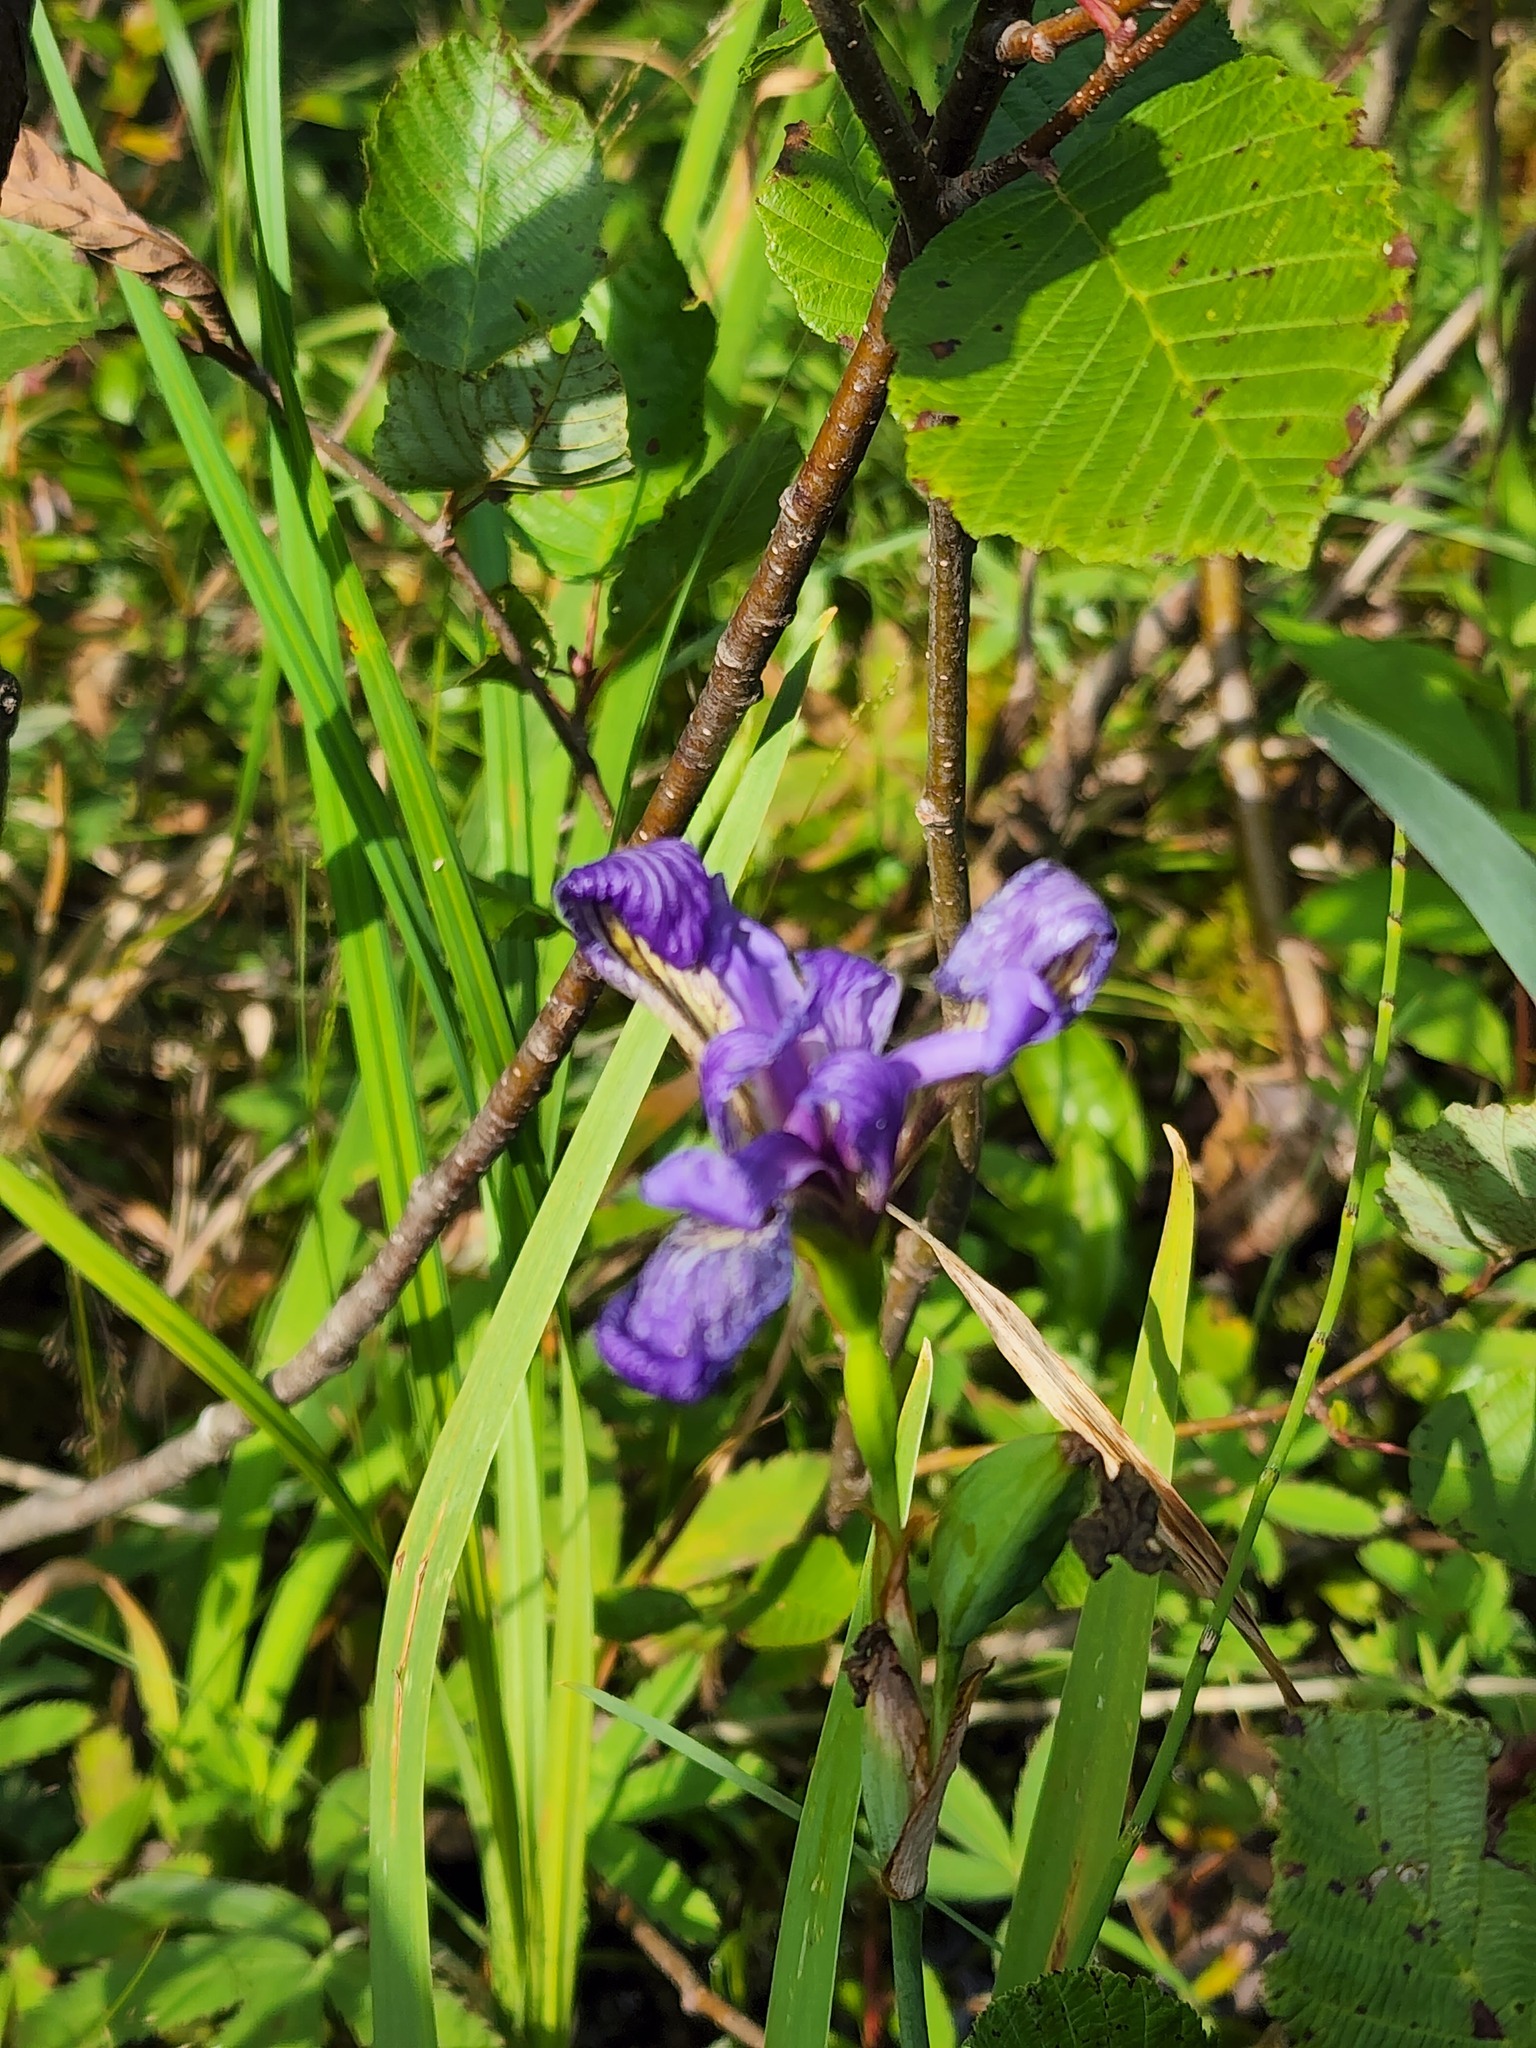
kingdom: Plantae
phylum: Tracheophyta
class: Liliopsida
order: Asparagales
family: Iridaceae
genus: Iris
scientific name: Iris versicolor
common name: Purple iris
